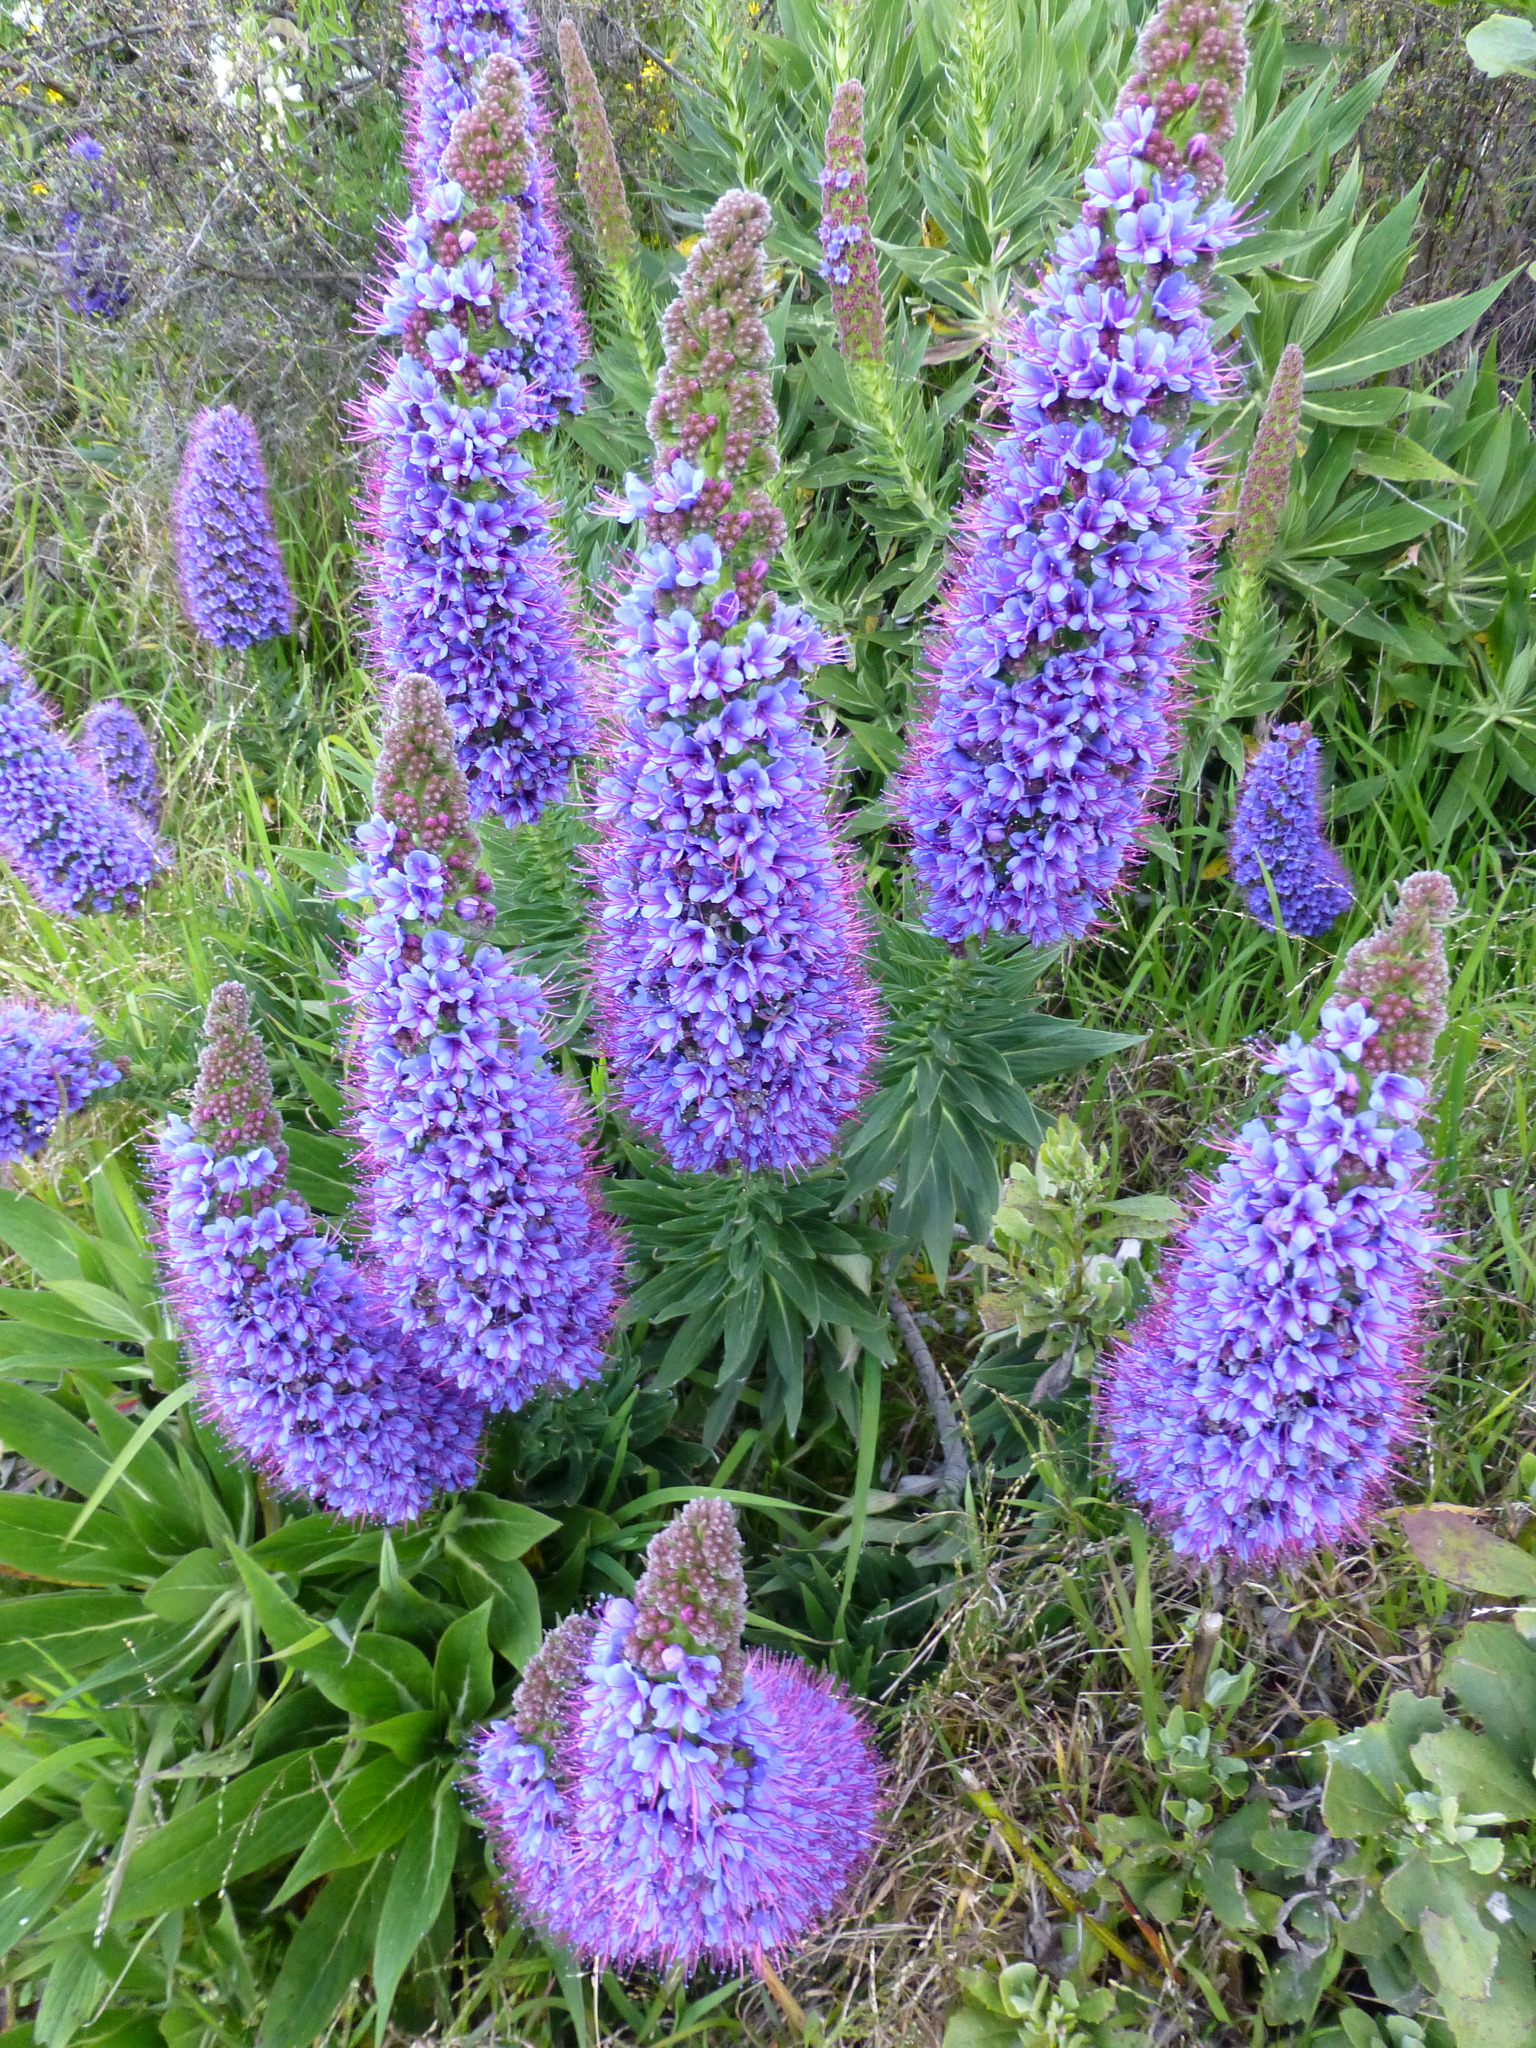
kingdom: Plantae
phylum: Tracheophyta
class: Magnoliopsida
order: Boraginales
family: Boraginaceae
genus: Echium
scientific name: Echium candicans
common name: Pride of madeira
